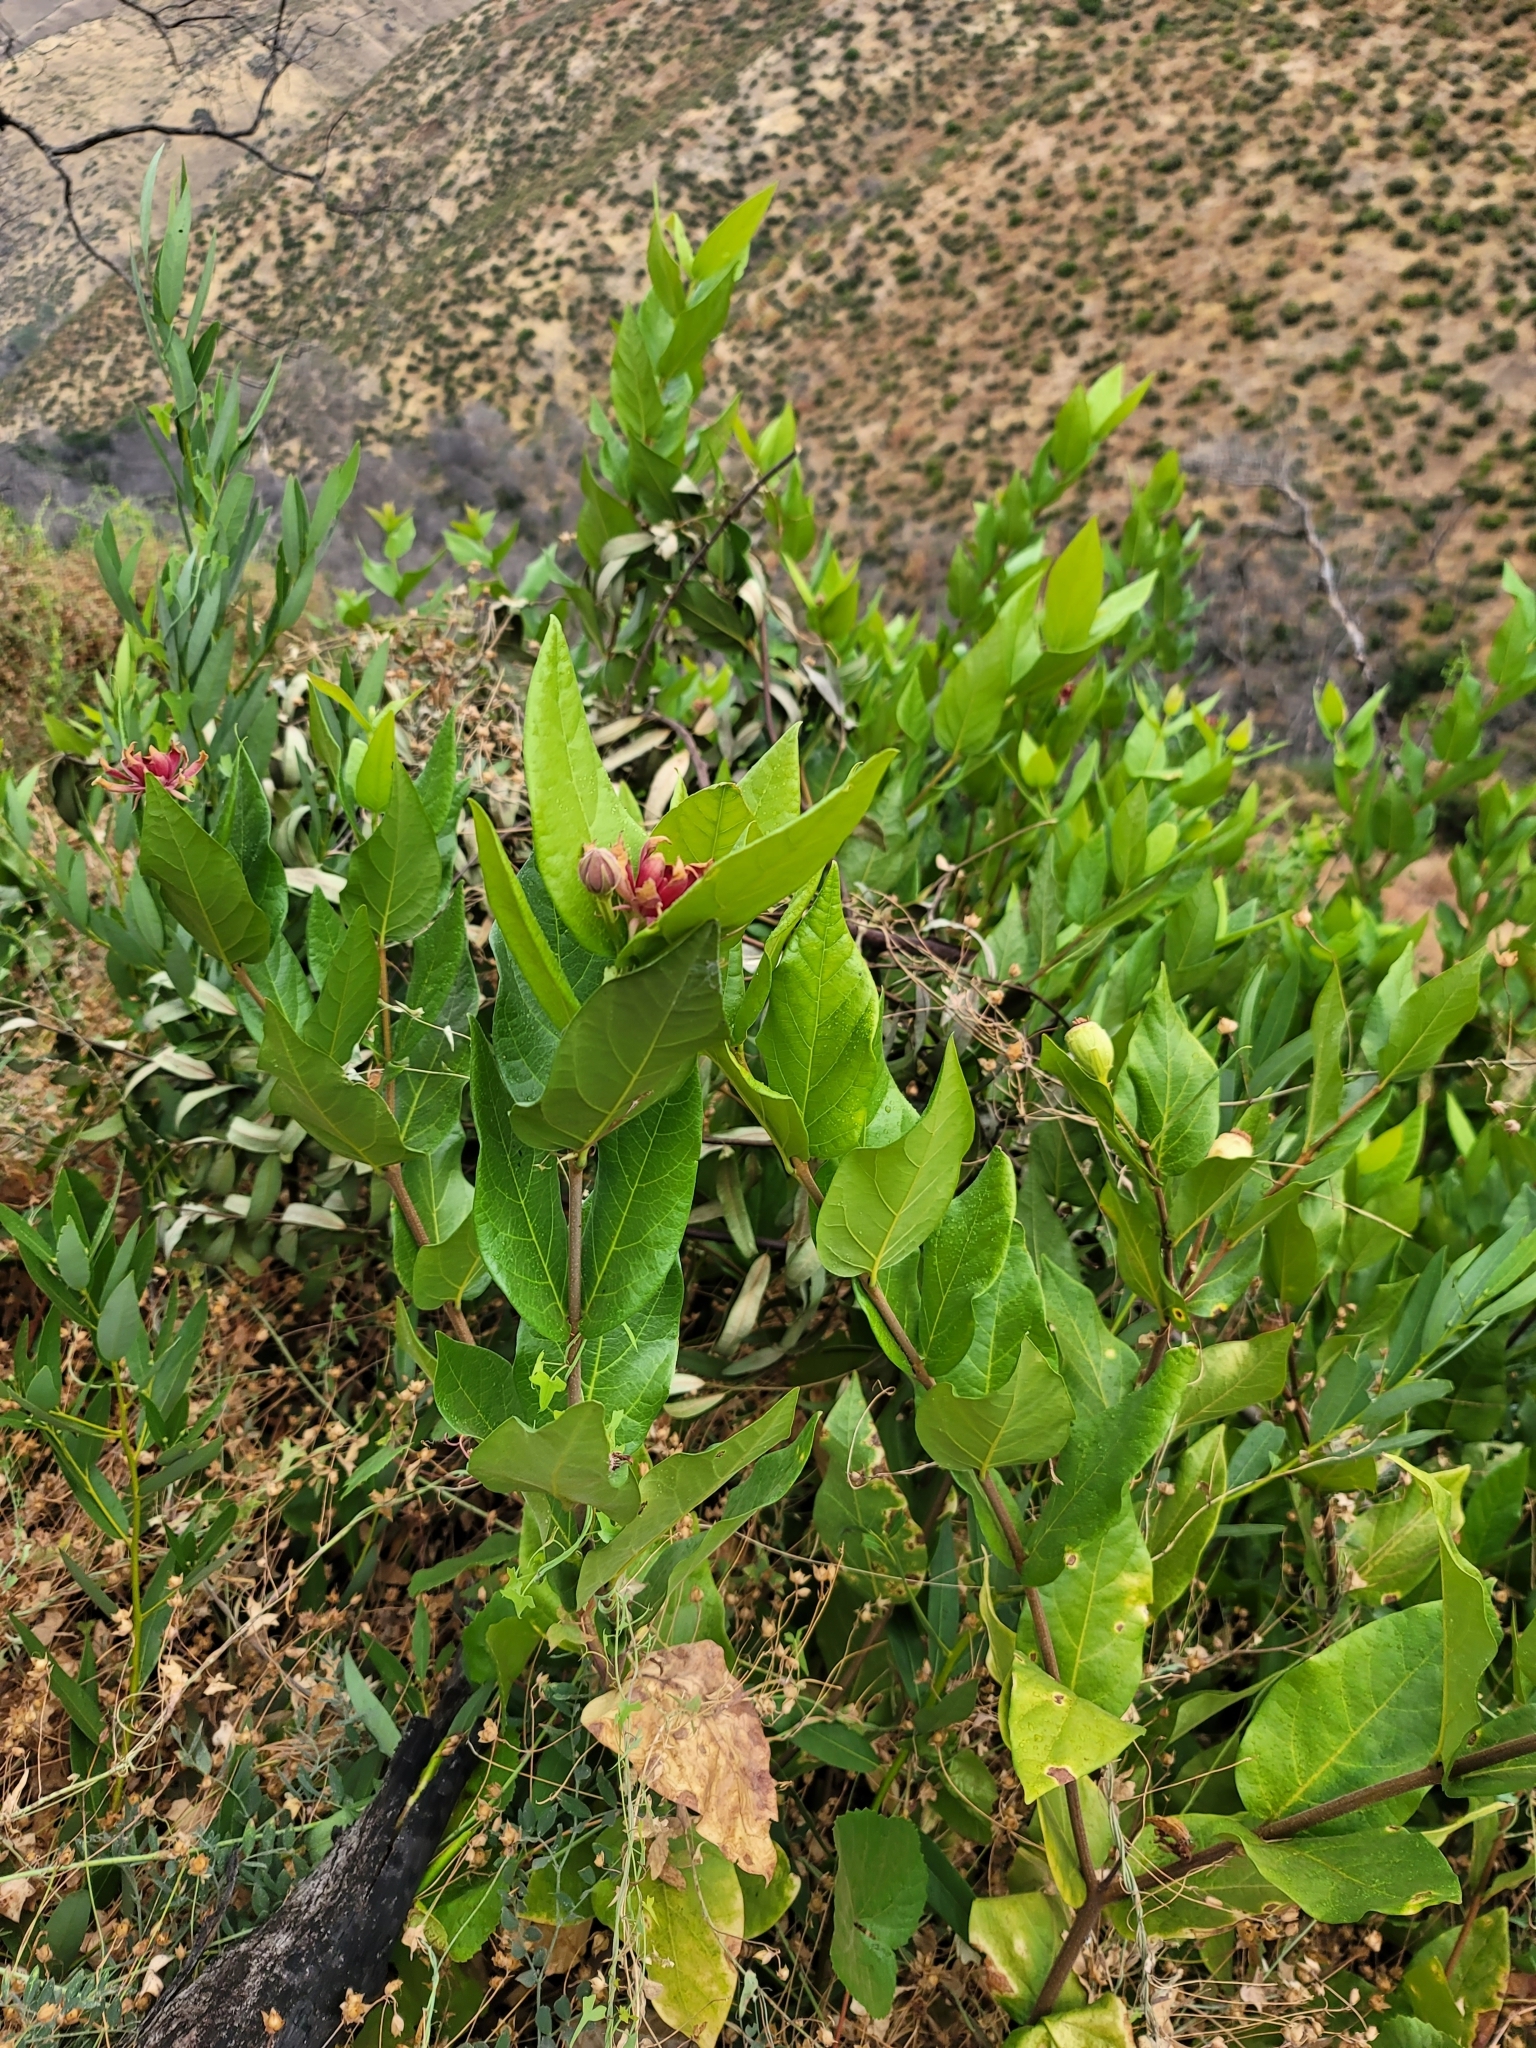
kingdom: Plantae
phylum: Tracheophyta
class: Magnoliopsida
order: Laurales
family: Calycanthaceae
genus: Calycanthus
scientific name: Calycanthus occidentalis
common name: California spicebush
